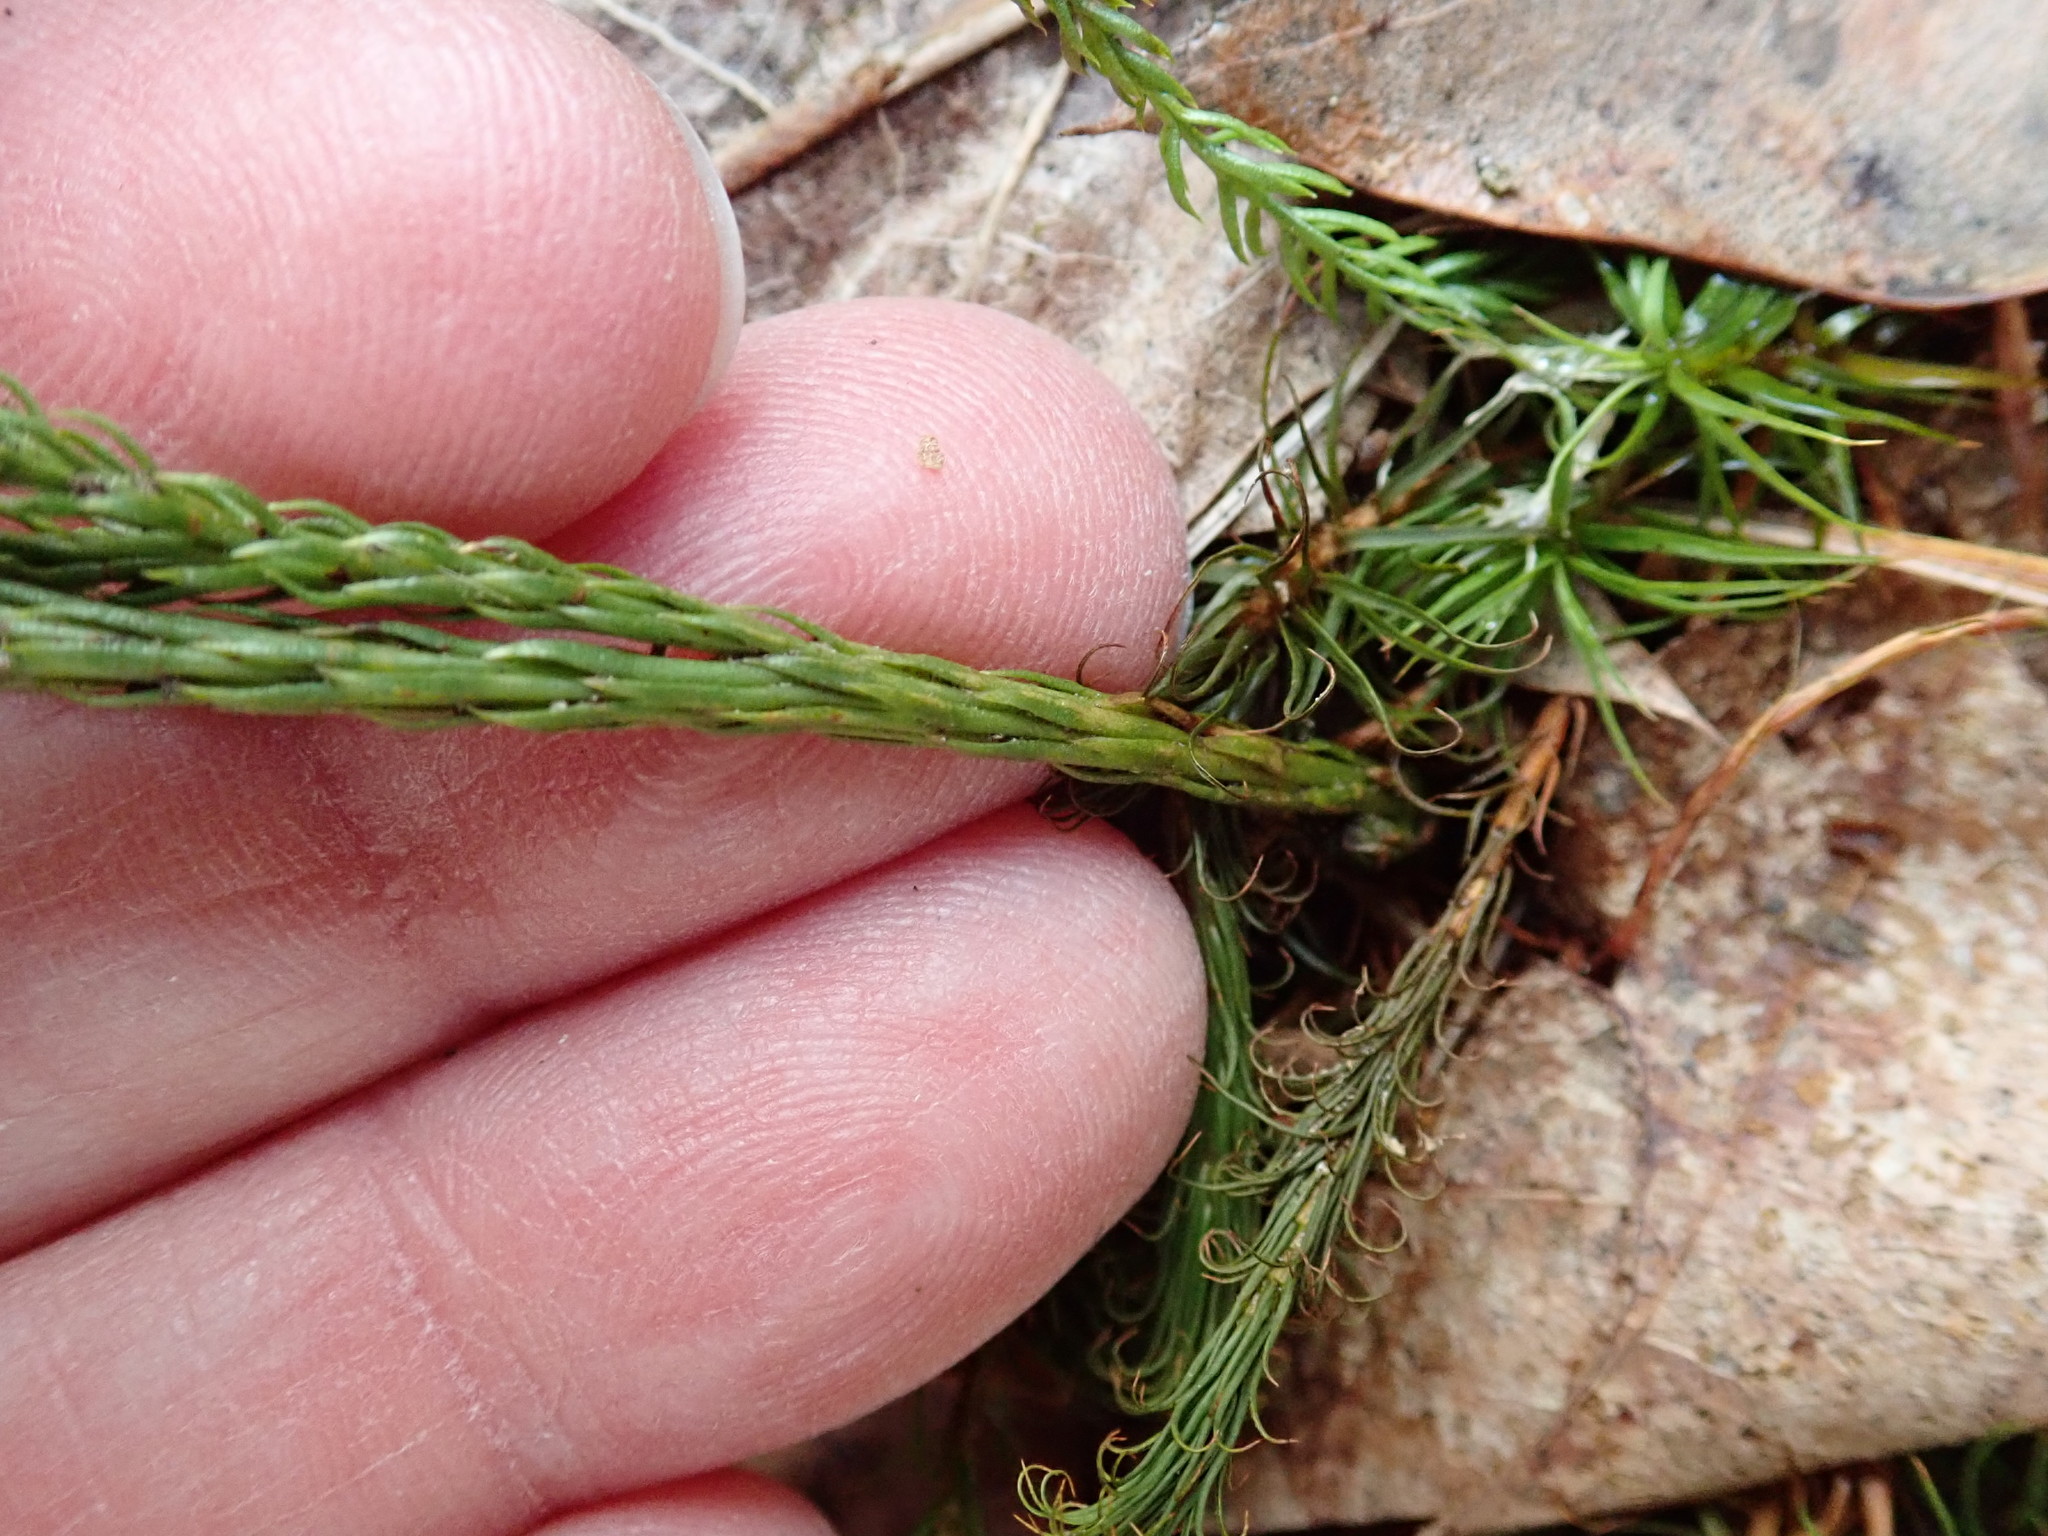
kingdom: Plantae
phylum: Tracheophyta
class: Lycopodiopsida
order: Lycopodiales
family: Lycopodiaceae
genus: Dendrolycopodium
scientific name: Dendrolycopodium hickeyi
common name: Hickey's clubmoss
